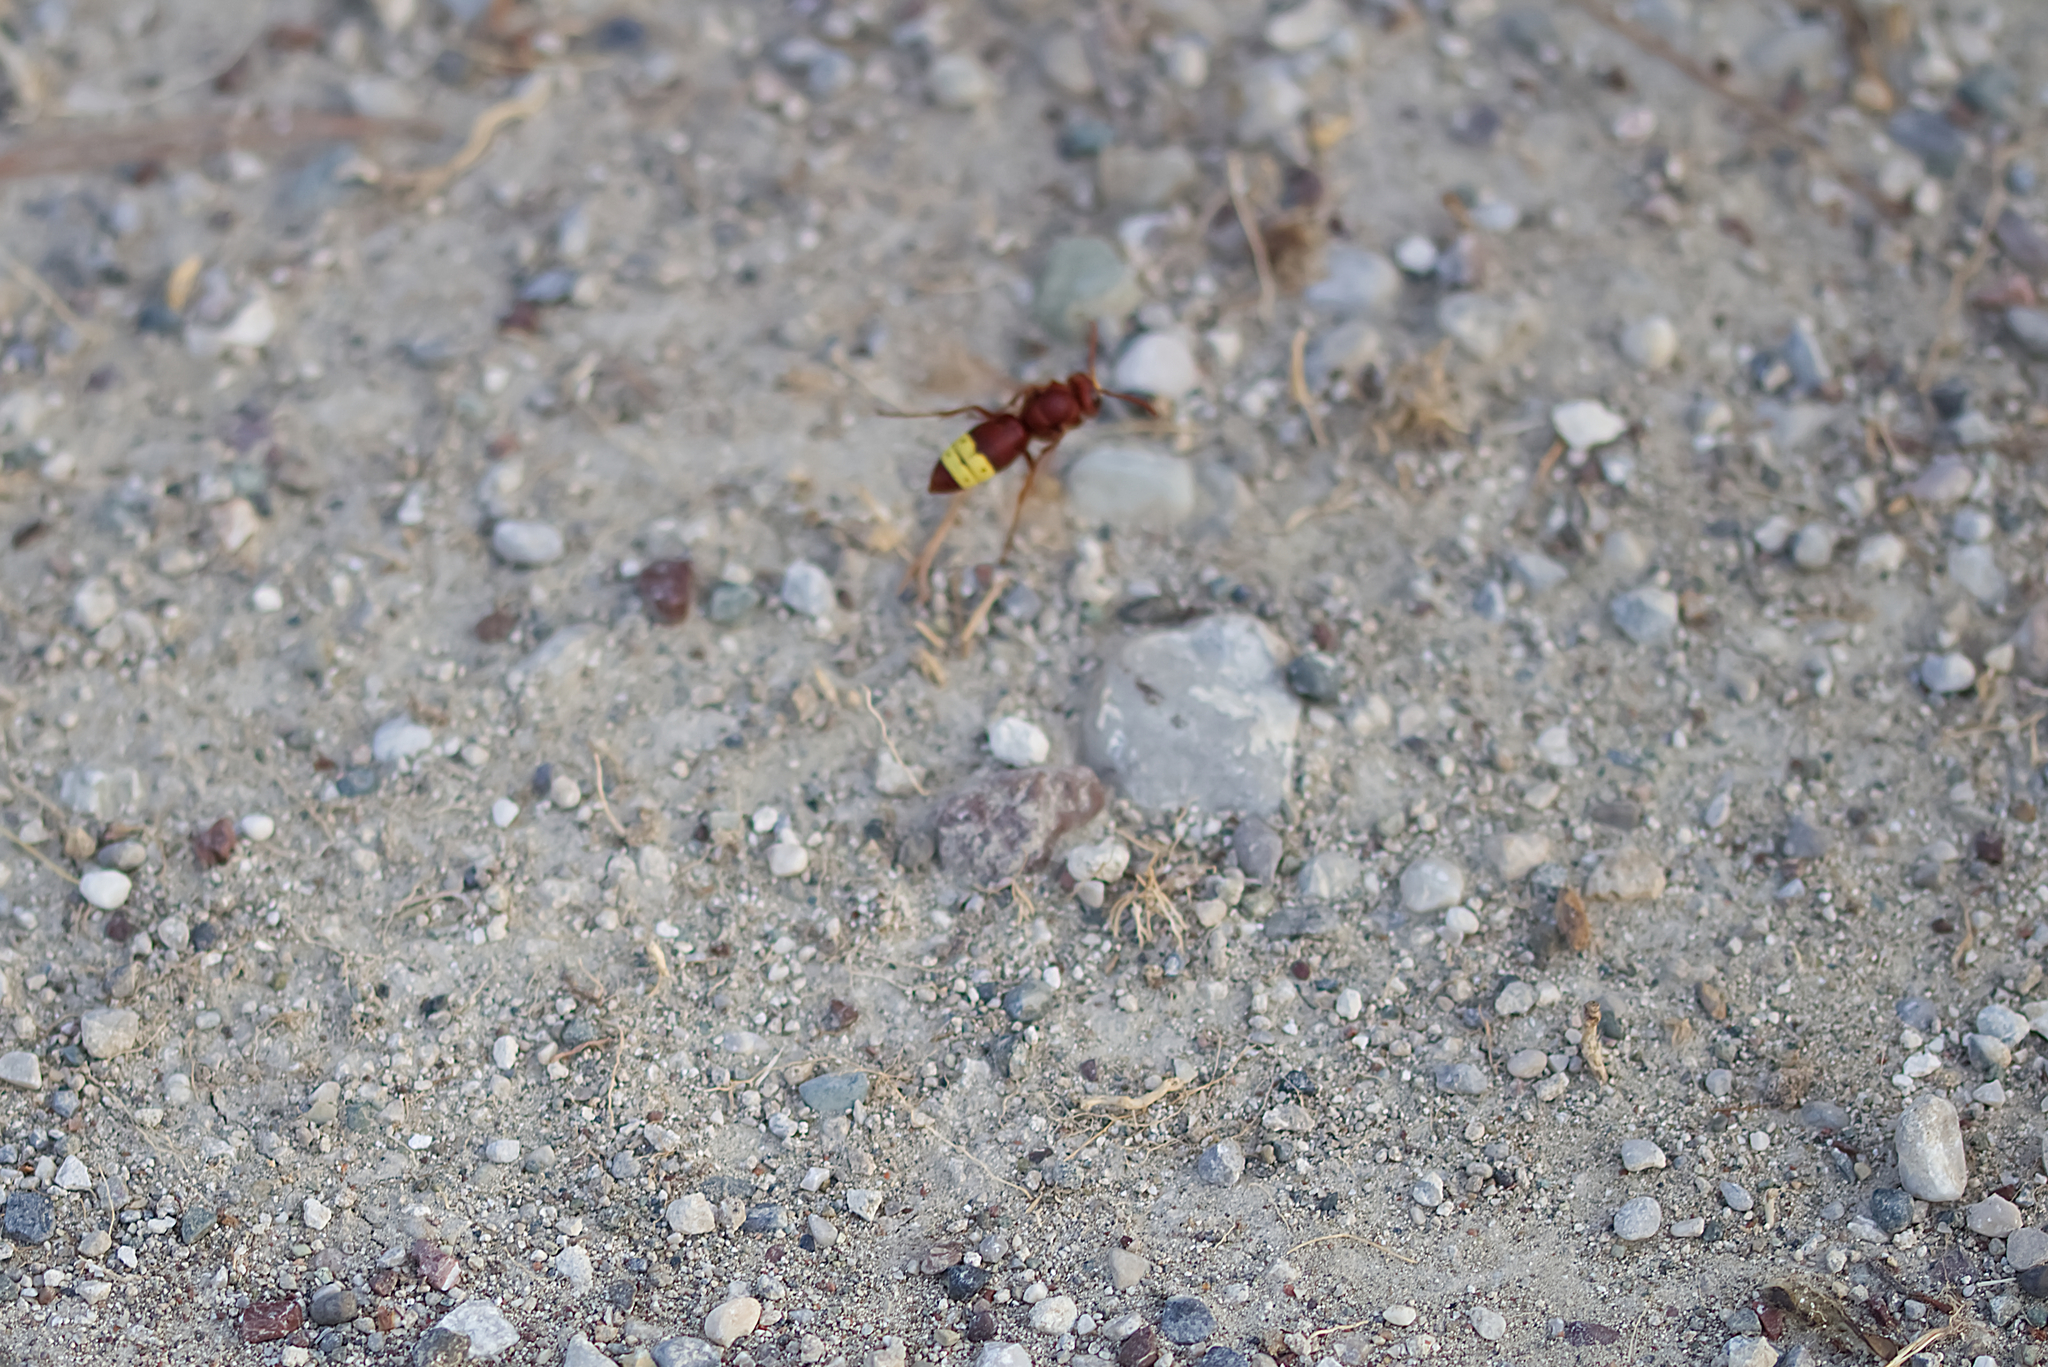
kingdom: Animalia
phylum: Arthropoda
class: Insecta
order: Hymenoptera
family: Vespidae
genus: Vespa
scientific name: Vespa orientalis
